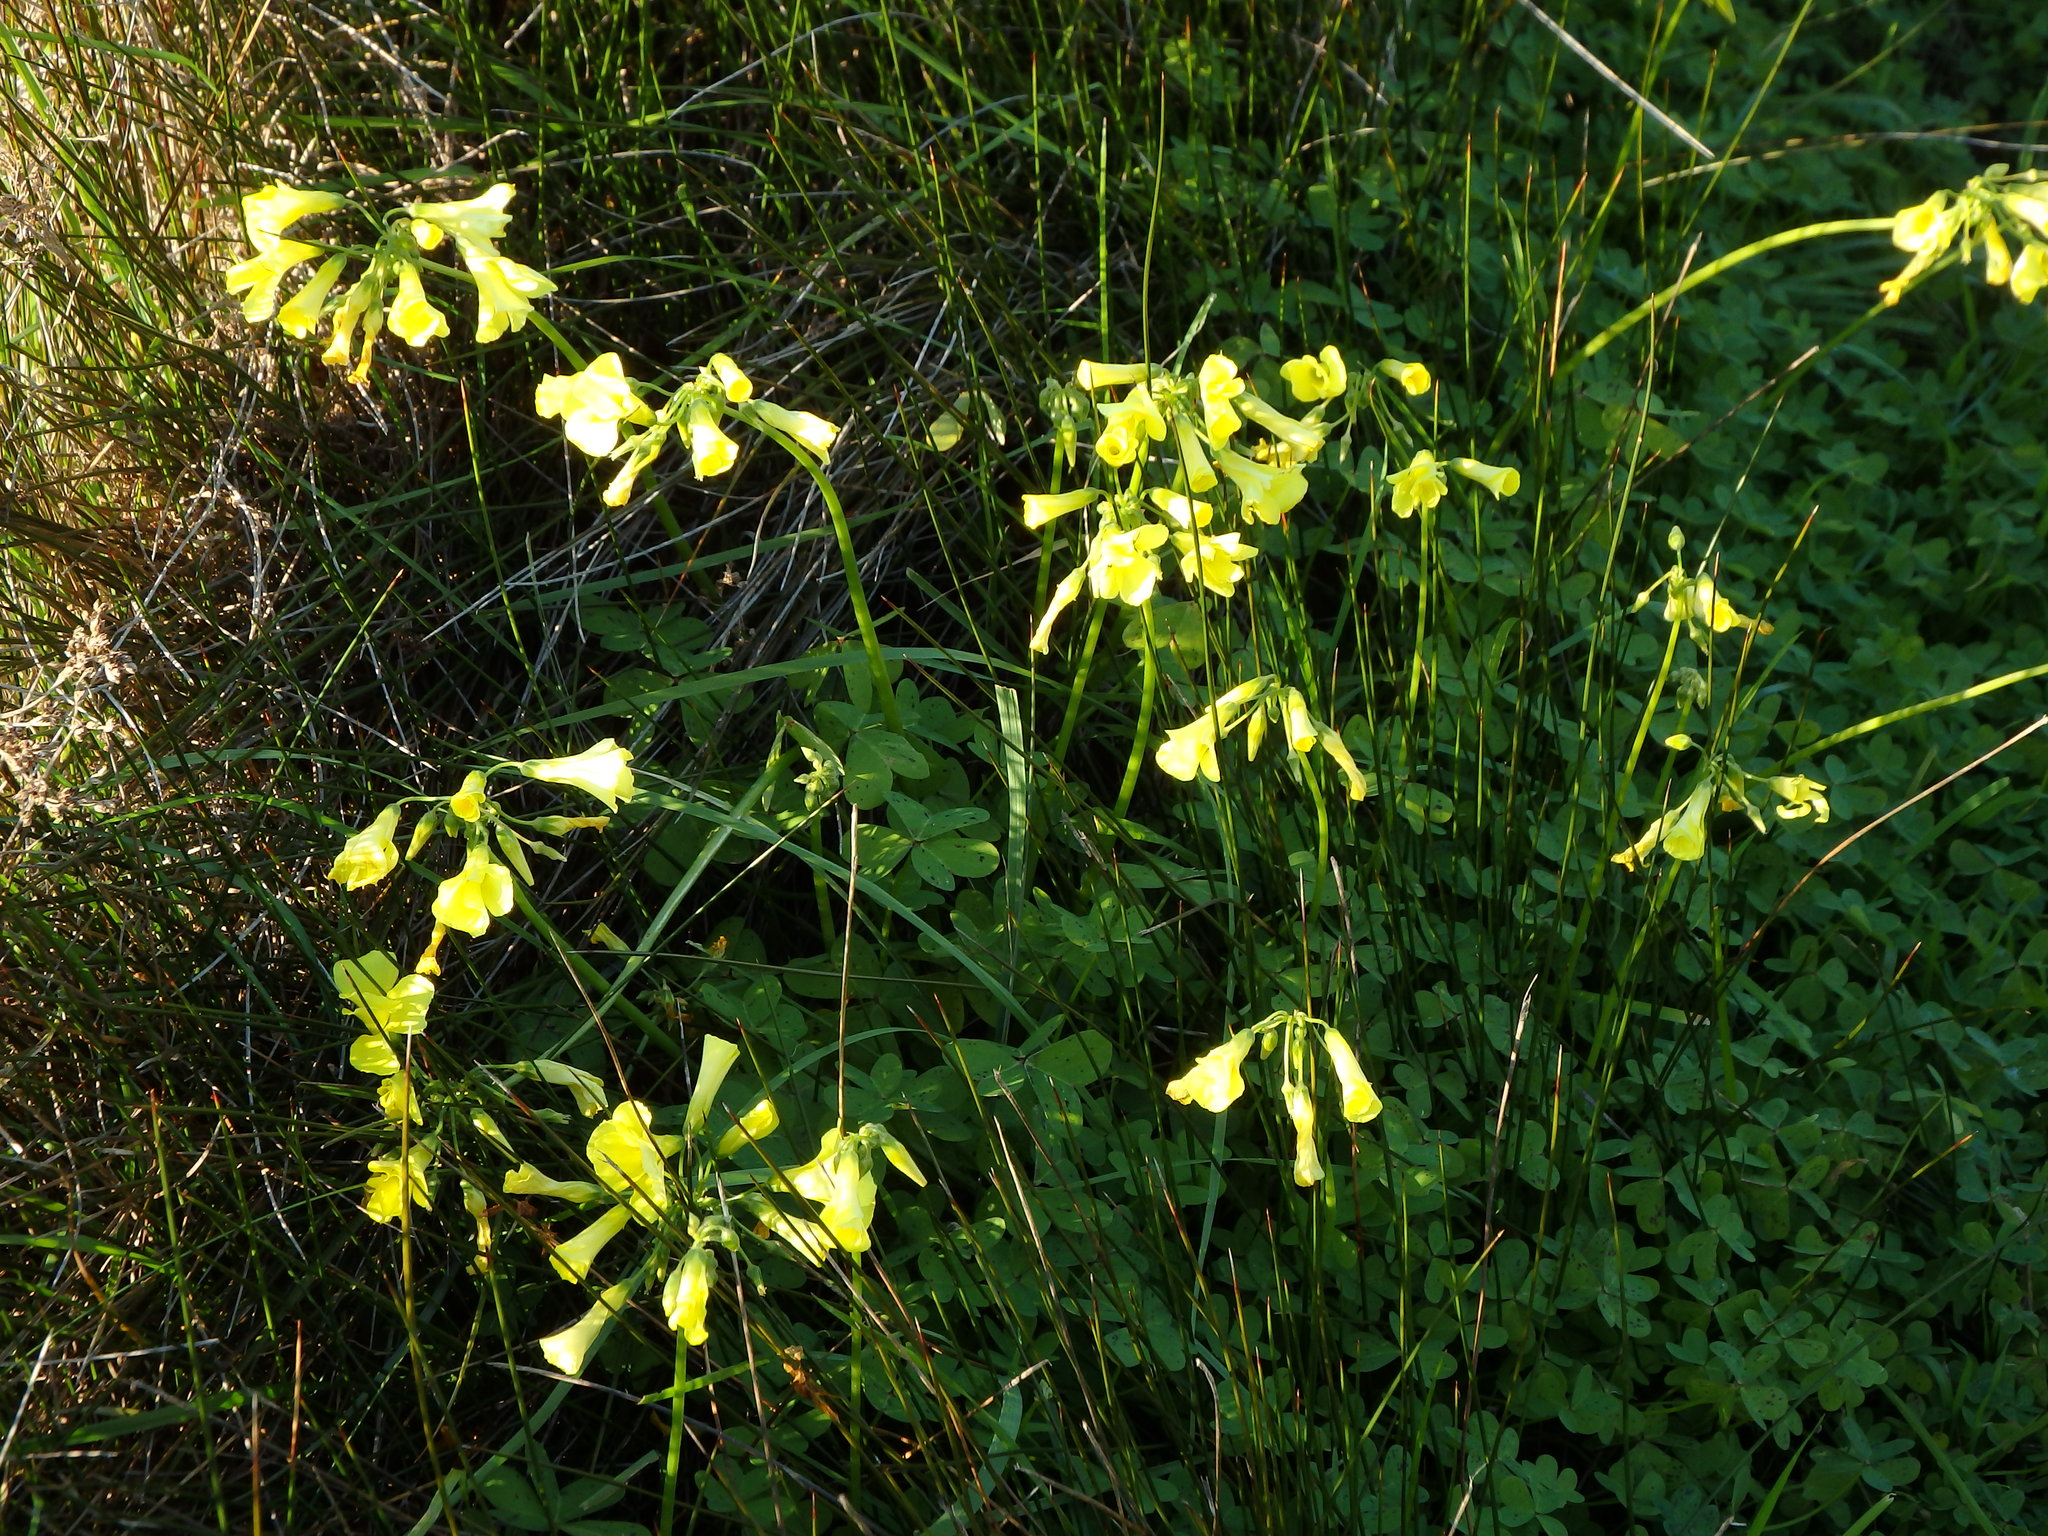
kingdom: Plantae
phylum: Tracheophyta
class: Magnoliopsida
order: Oxalidales
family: Oxalidaceae
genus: Oxalis
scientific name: Oxalis pes-caprae
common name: Bermuda-buttercup
